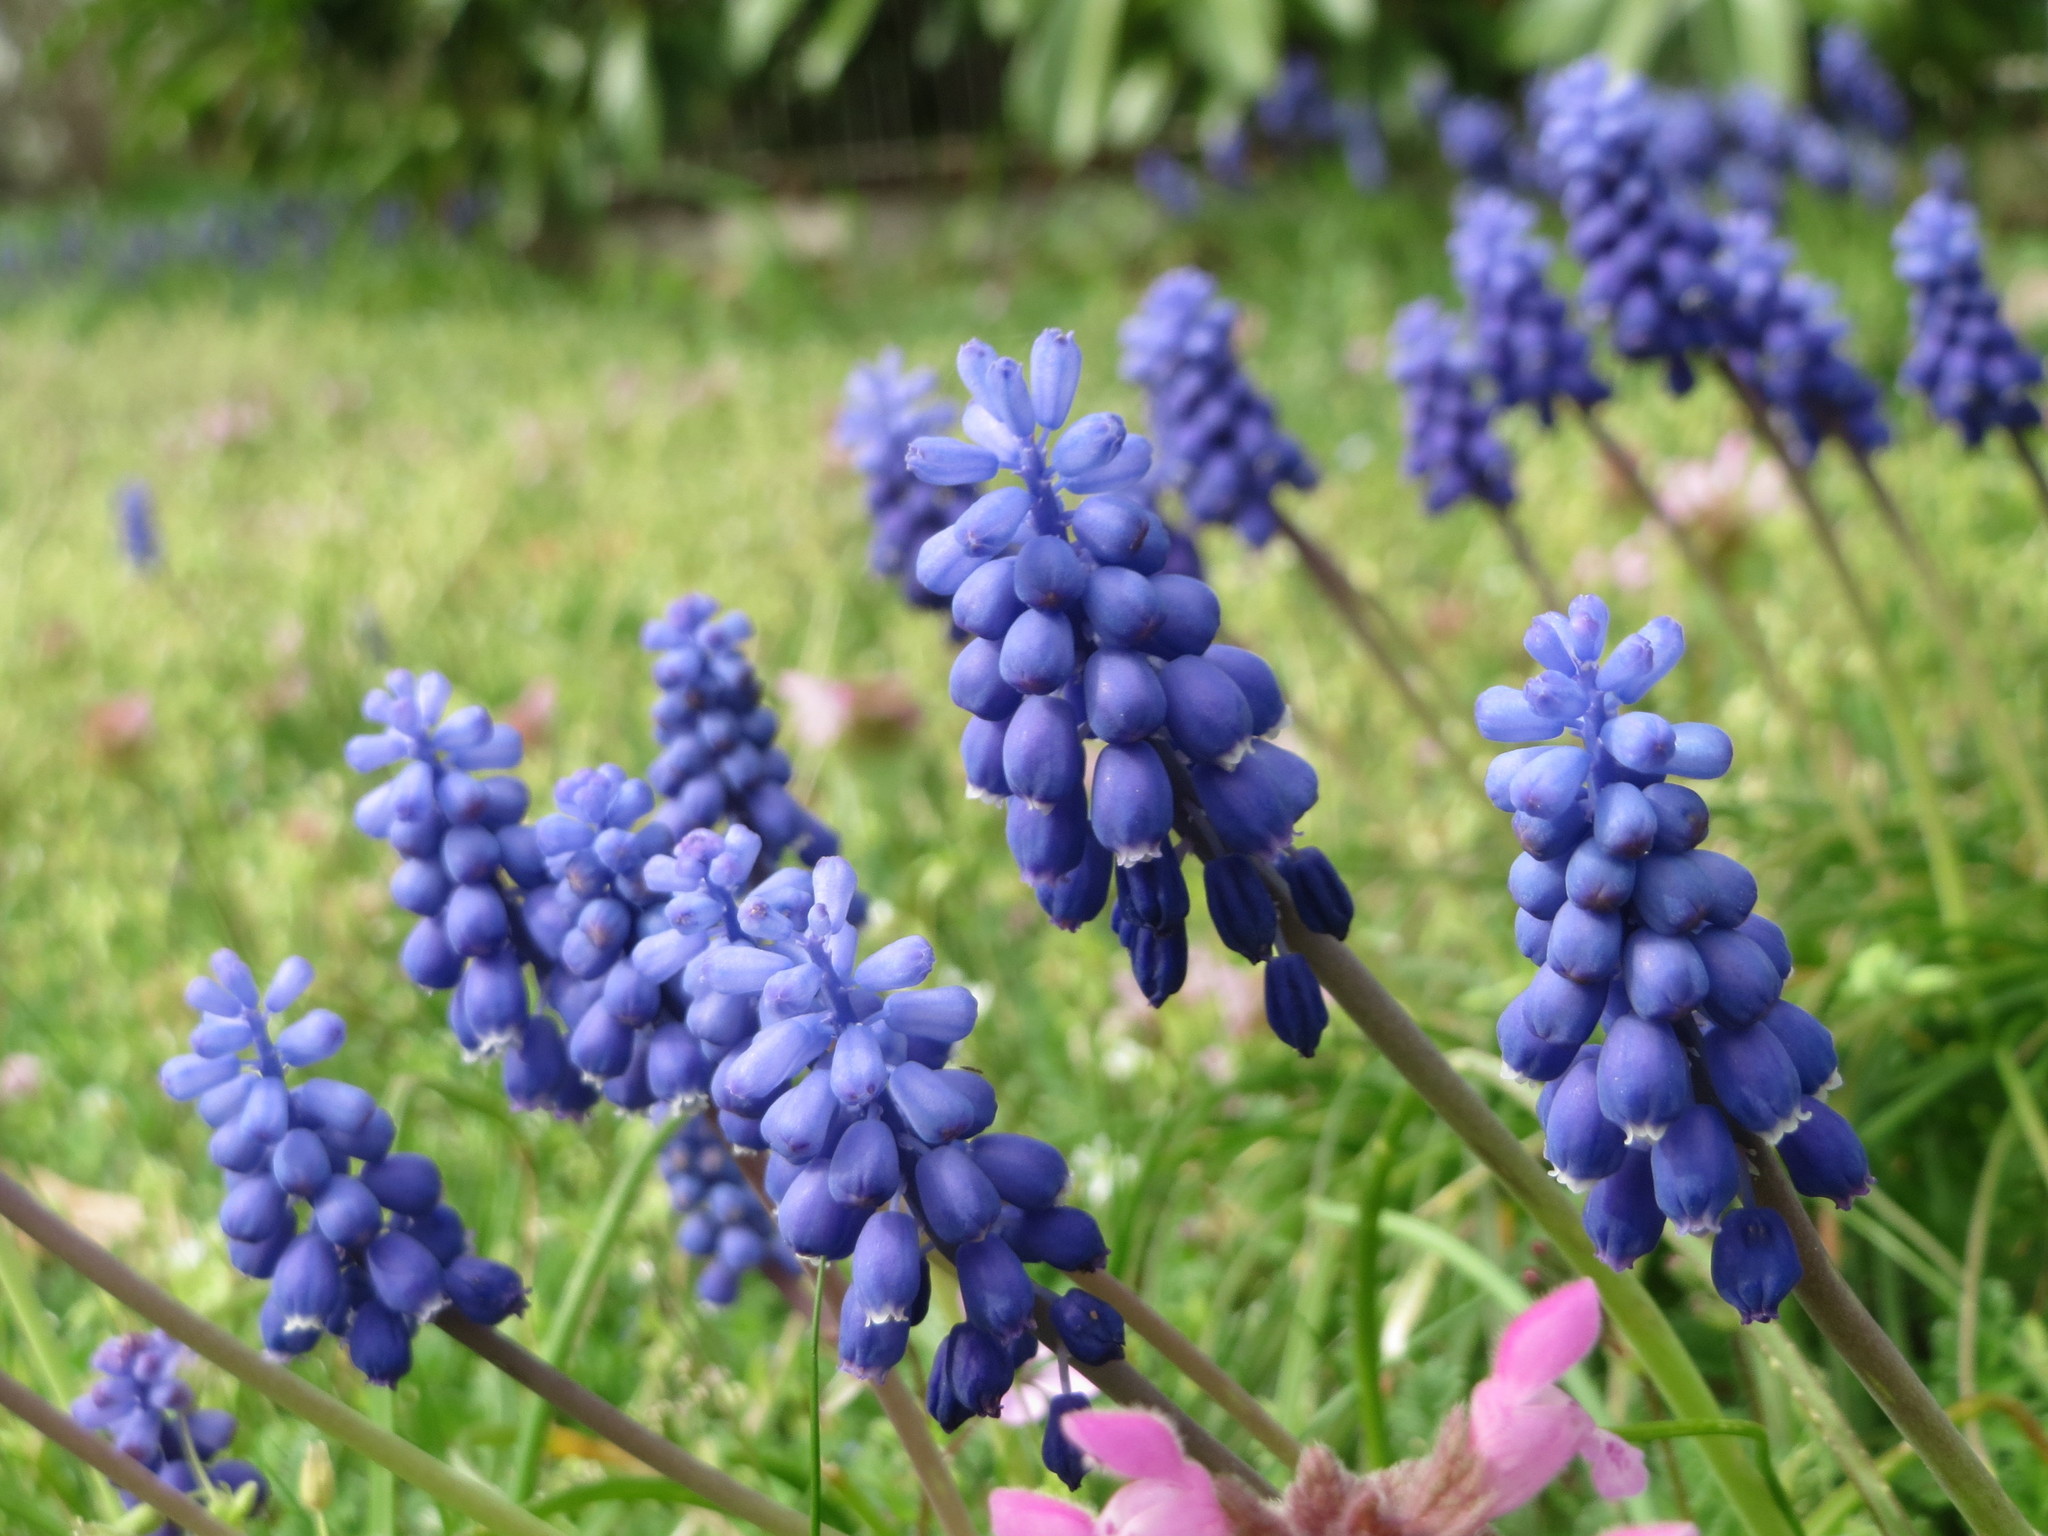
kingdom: Plantae
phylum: Tracheophyta
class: Liliopsida
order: Asparagales
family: Asparagaceae
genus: Muscari
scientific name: Muscari armeniacum
